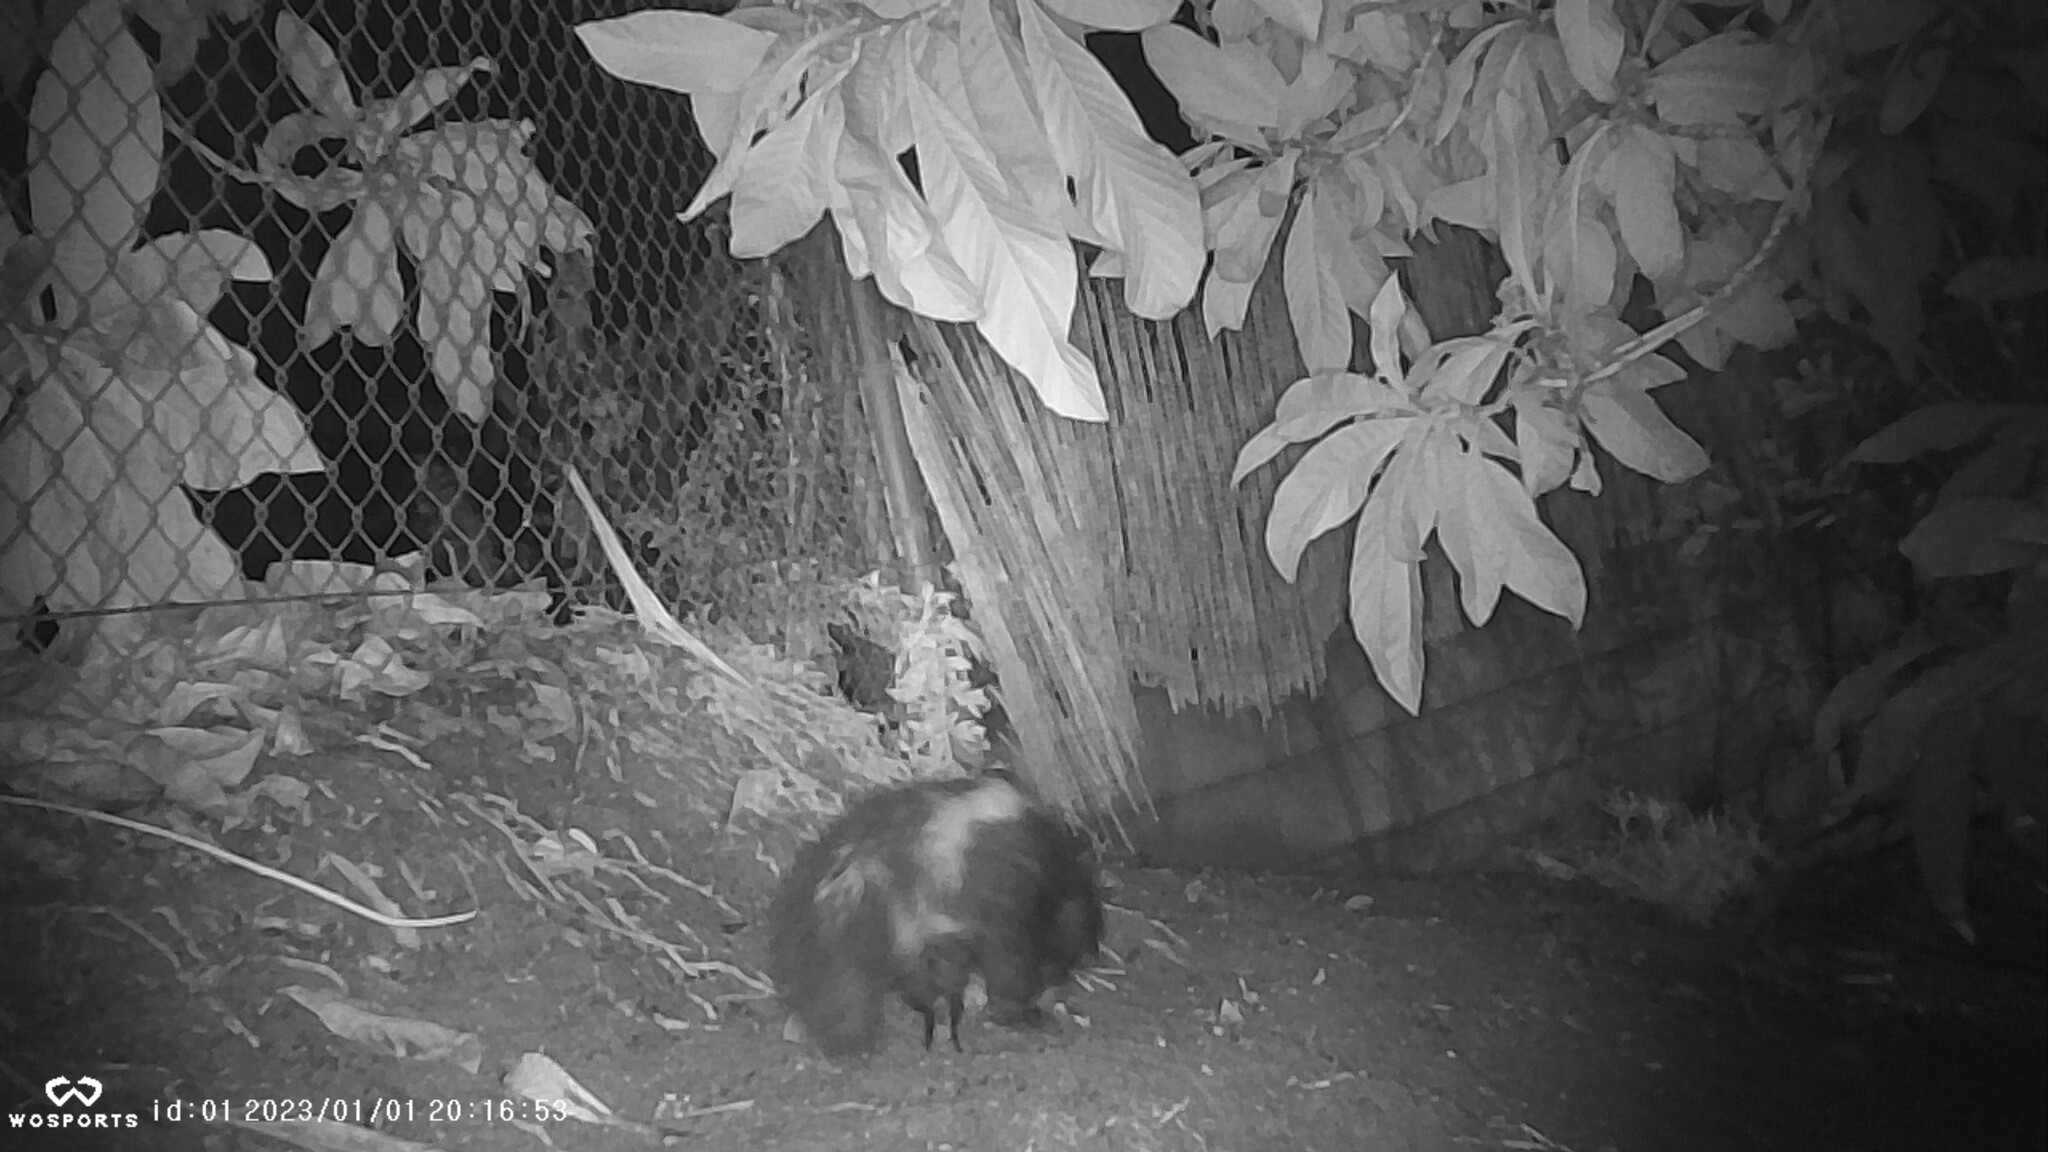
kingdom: Animalia
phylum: Chordata
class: Mammalia
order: Carnivora
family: Mephitidae
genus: Mephitis
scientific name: Mephitis mephitis
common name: Striped skunk
